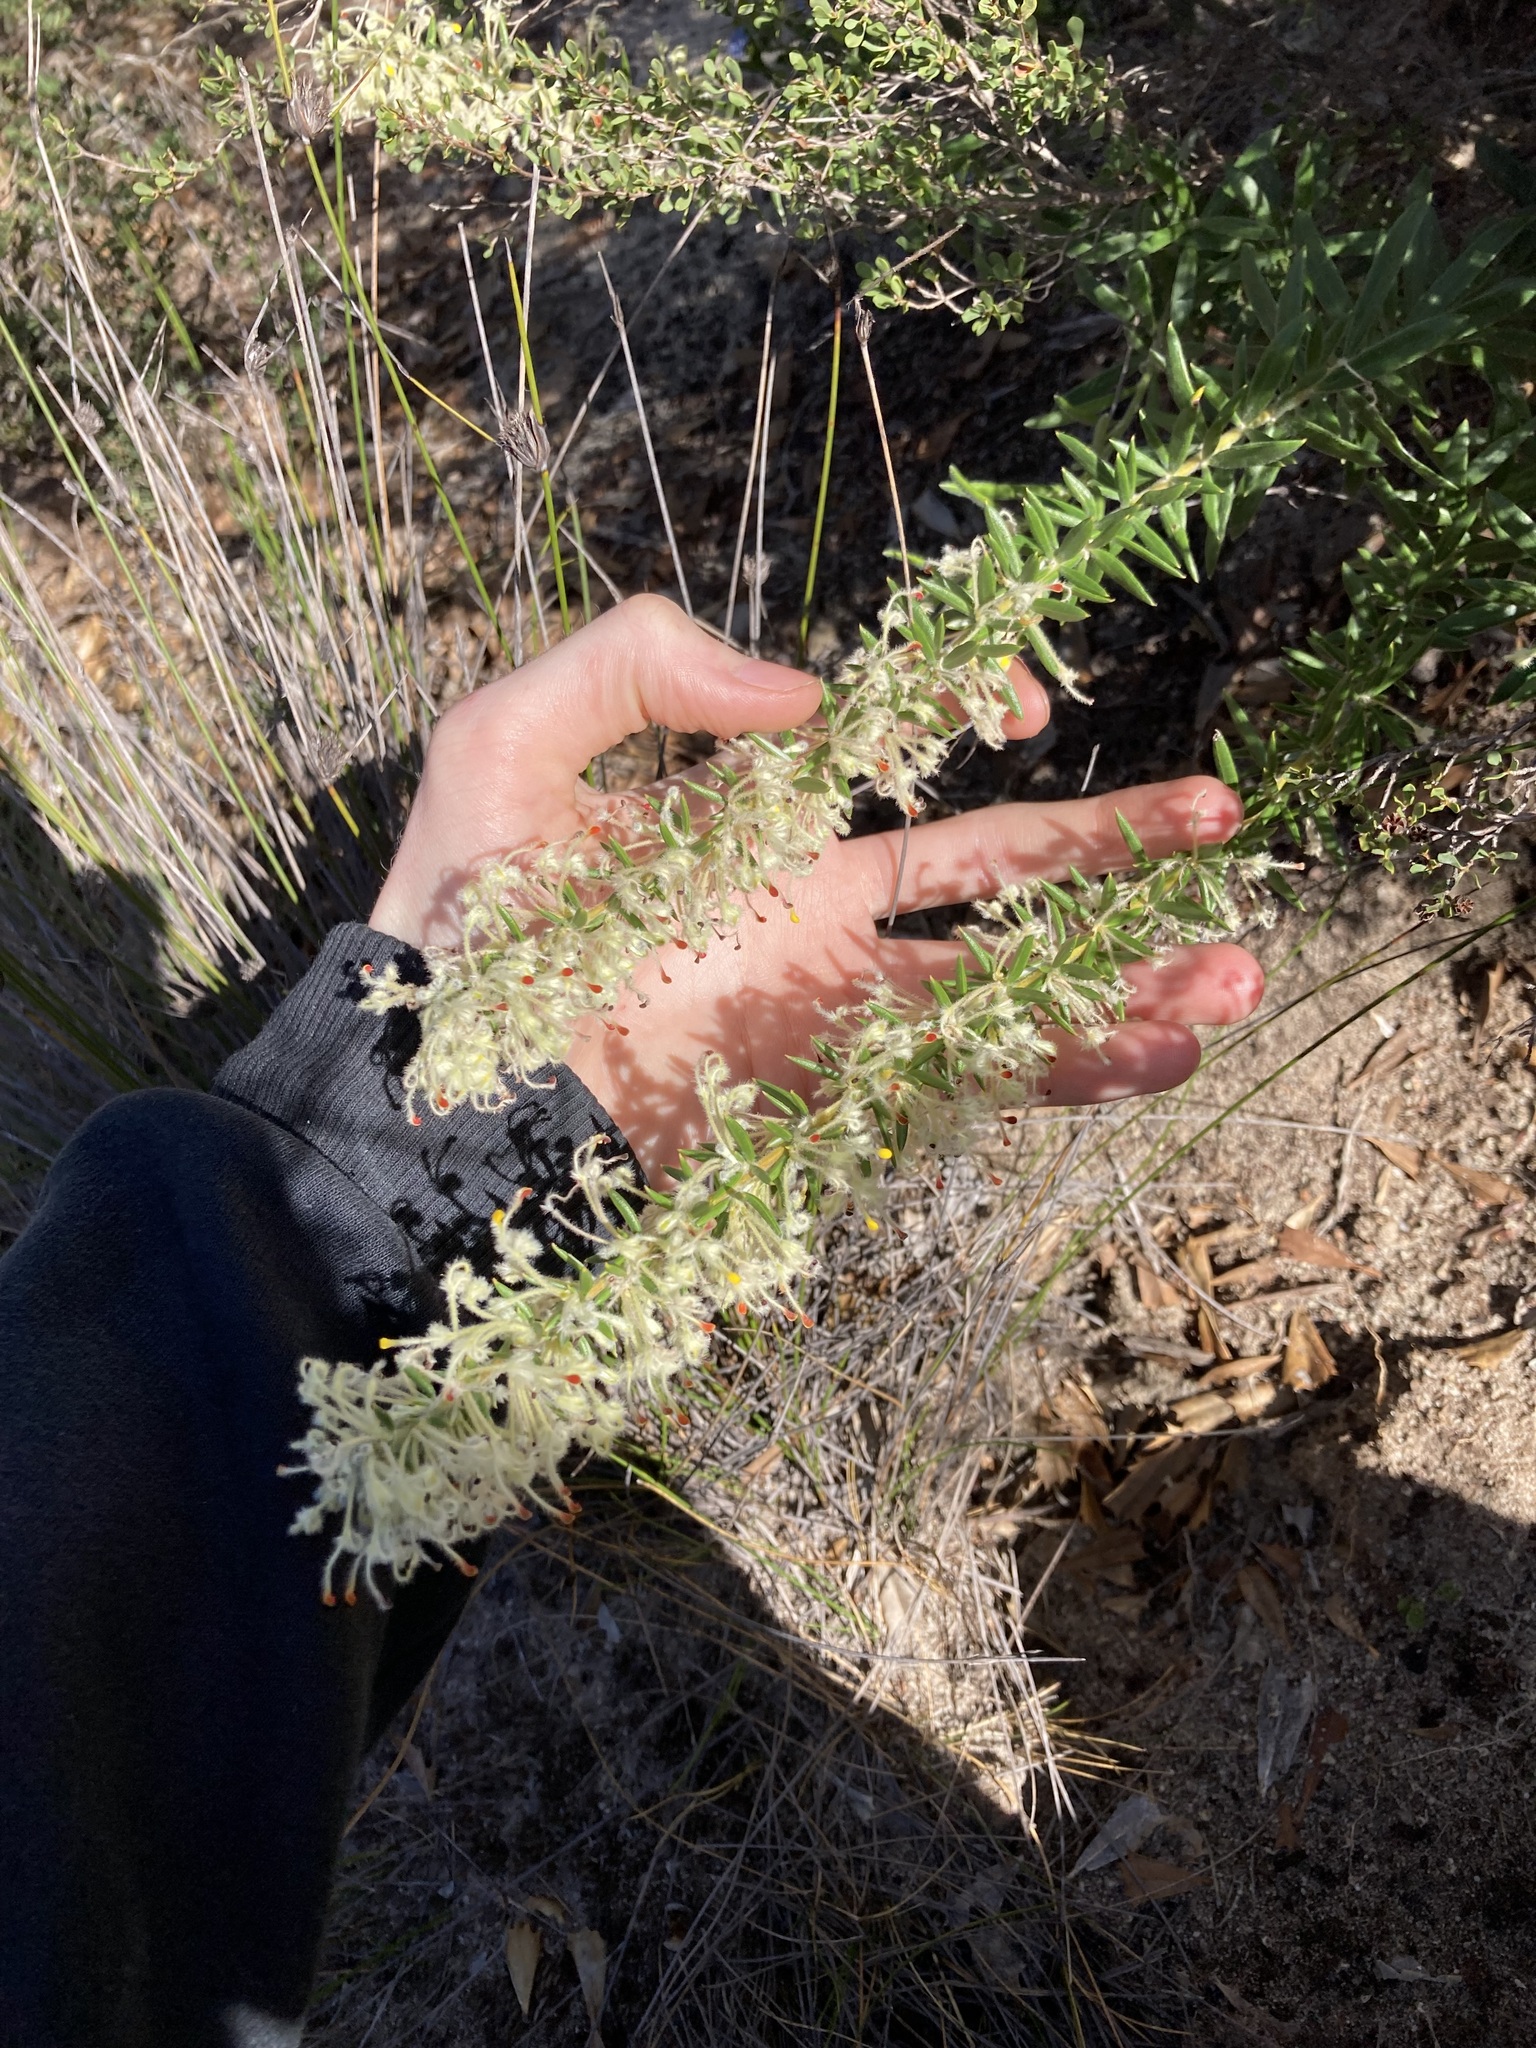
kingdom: Plantae
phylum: Tracheophyta
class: Magnoliopsida
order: Proteales
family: Proteaceae
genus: Grevillea
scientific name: Grevillea uncinulata
